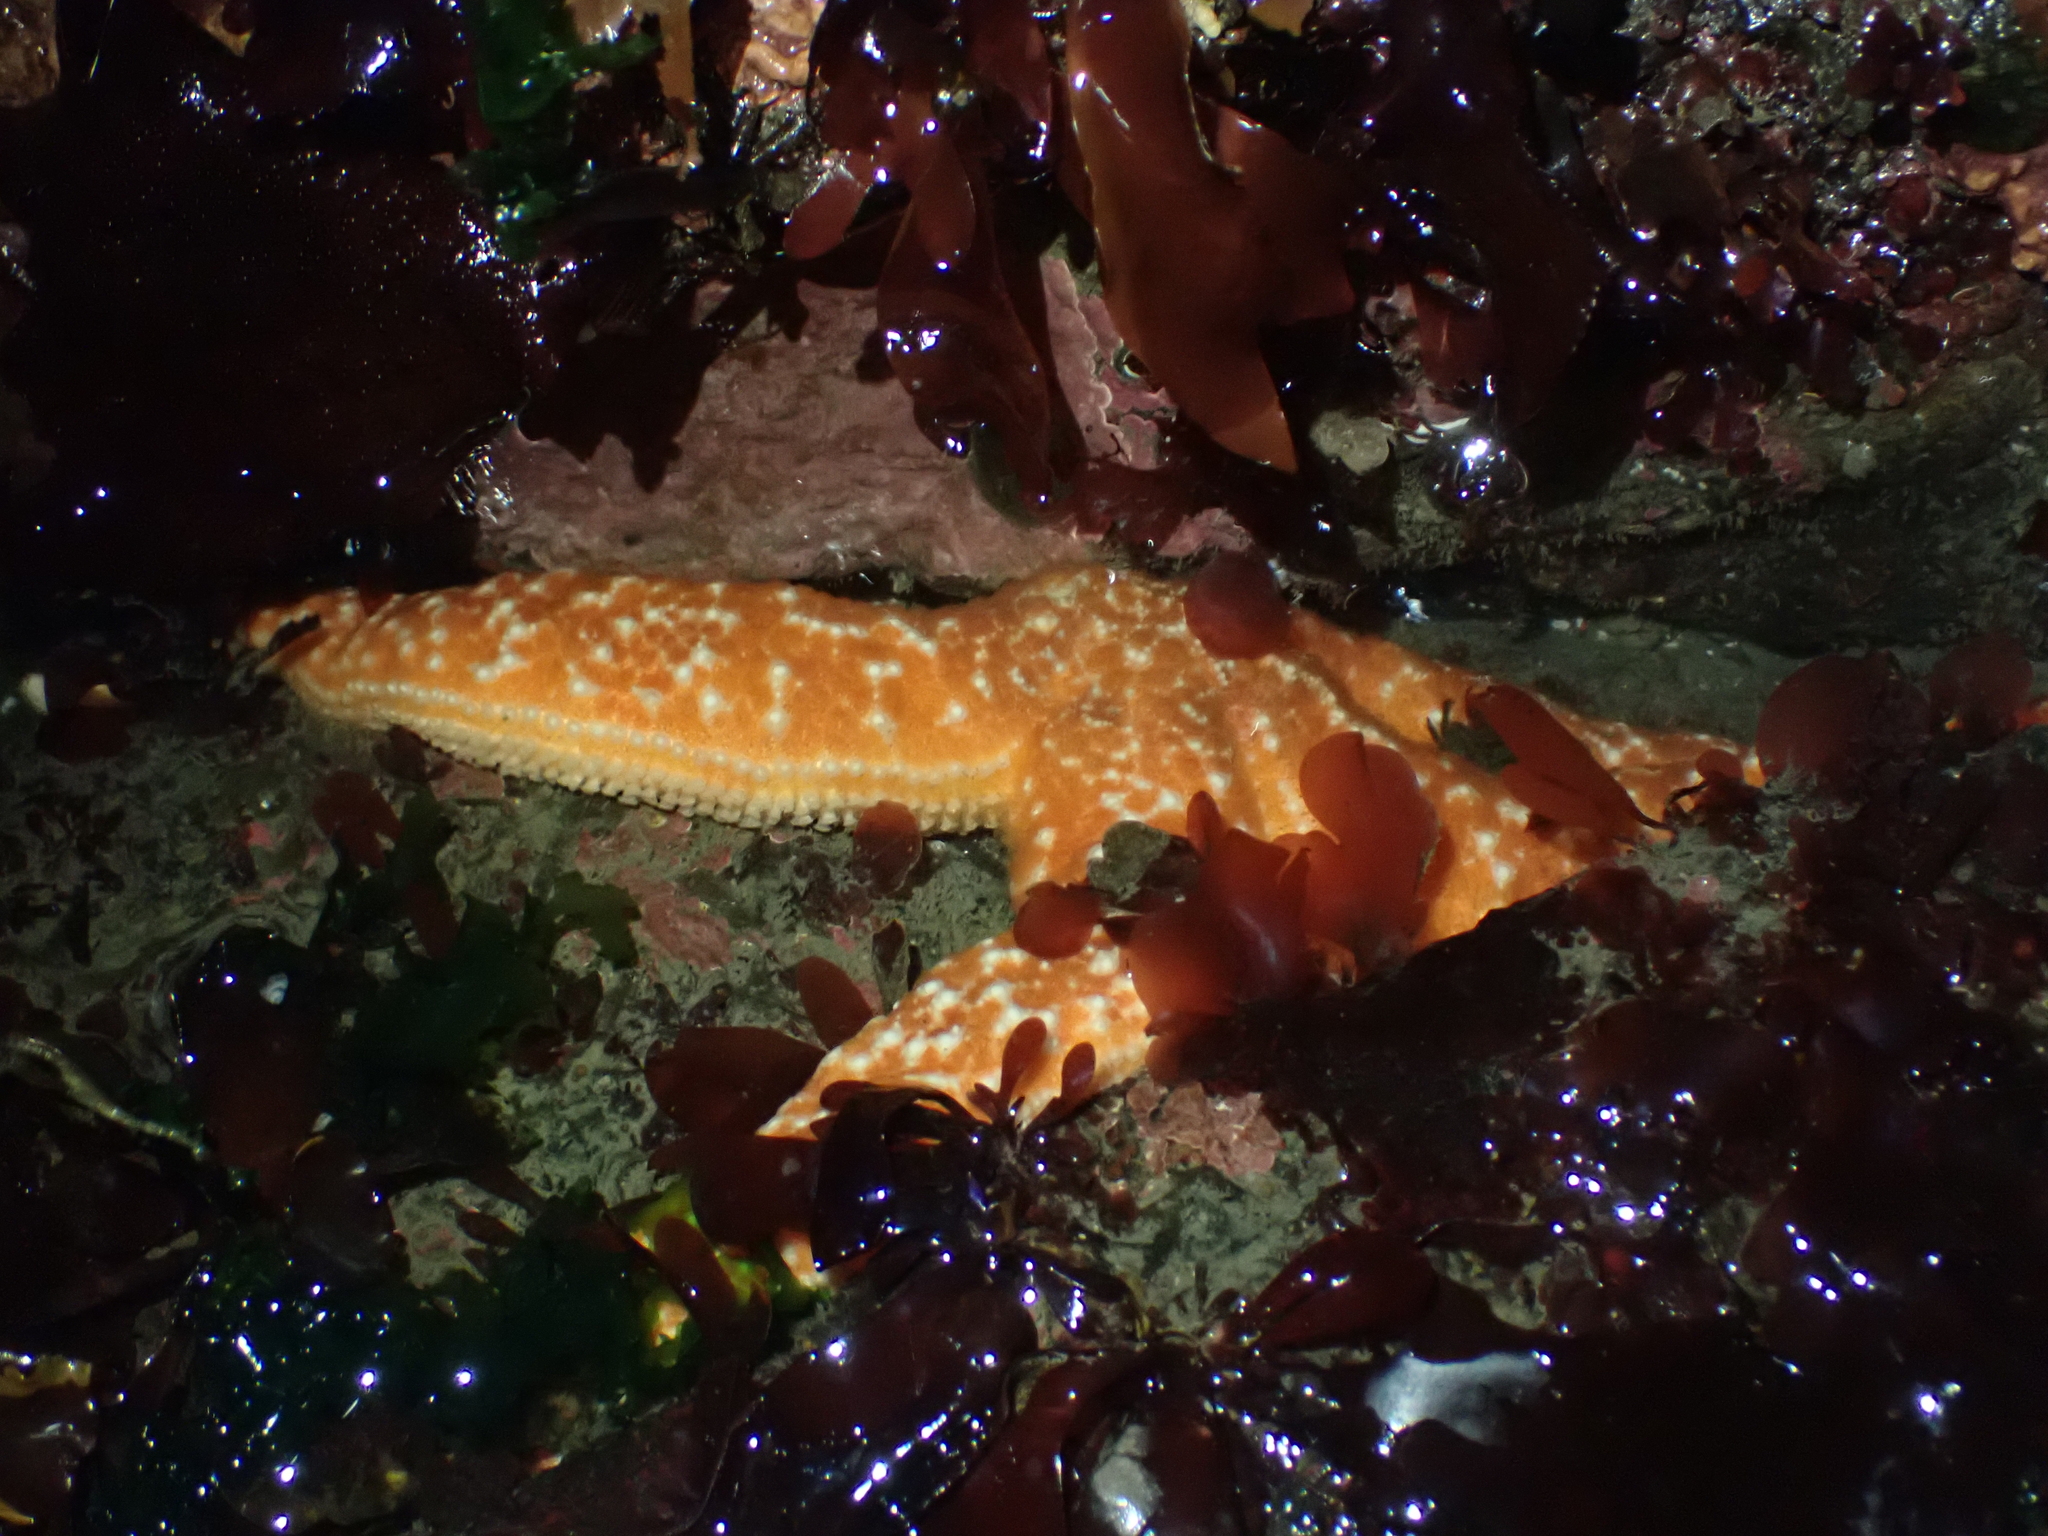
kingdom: Animalia
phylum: Echinodermata
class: Asteroidea
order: Forcipulatida
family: Asteriidae
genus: Evasterias
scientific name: Evasterias troschelii
